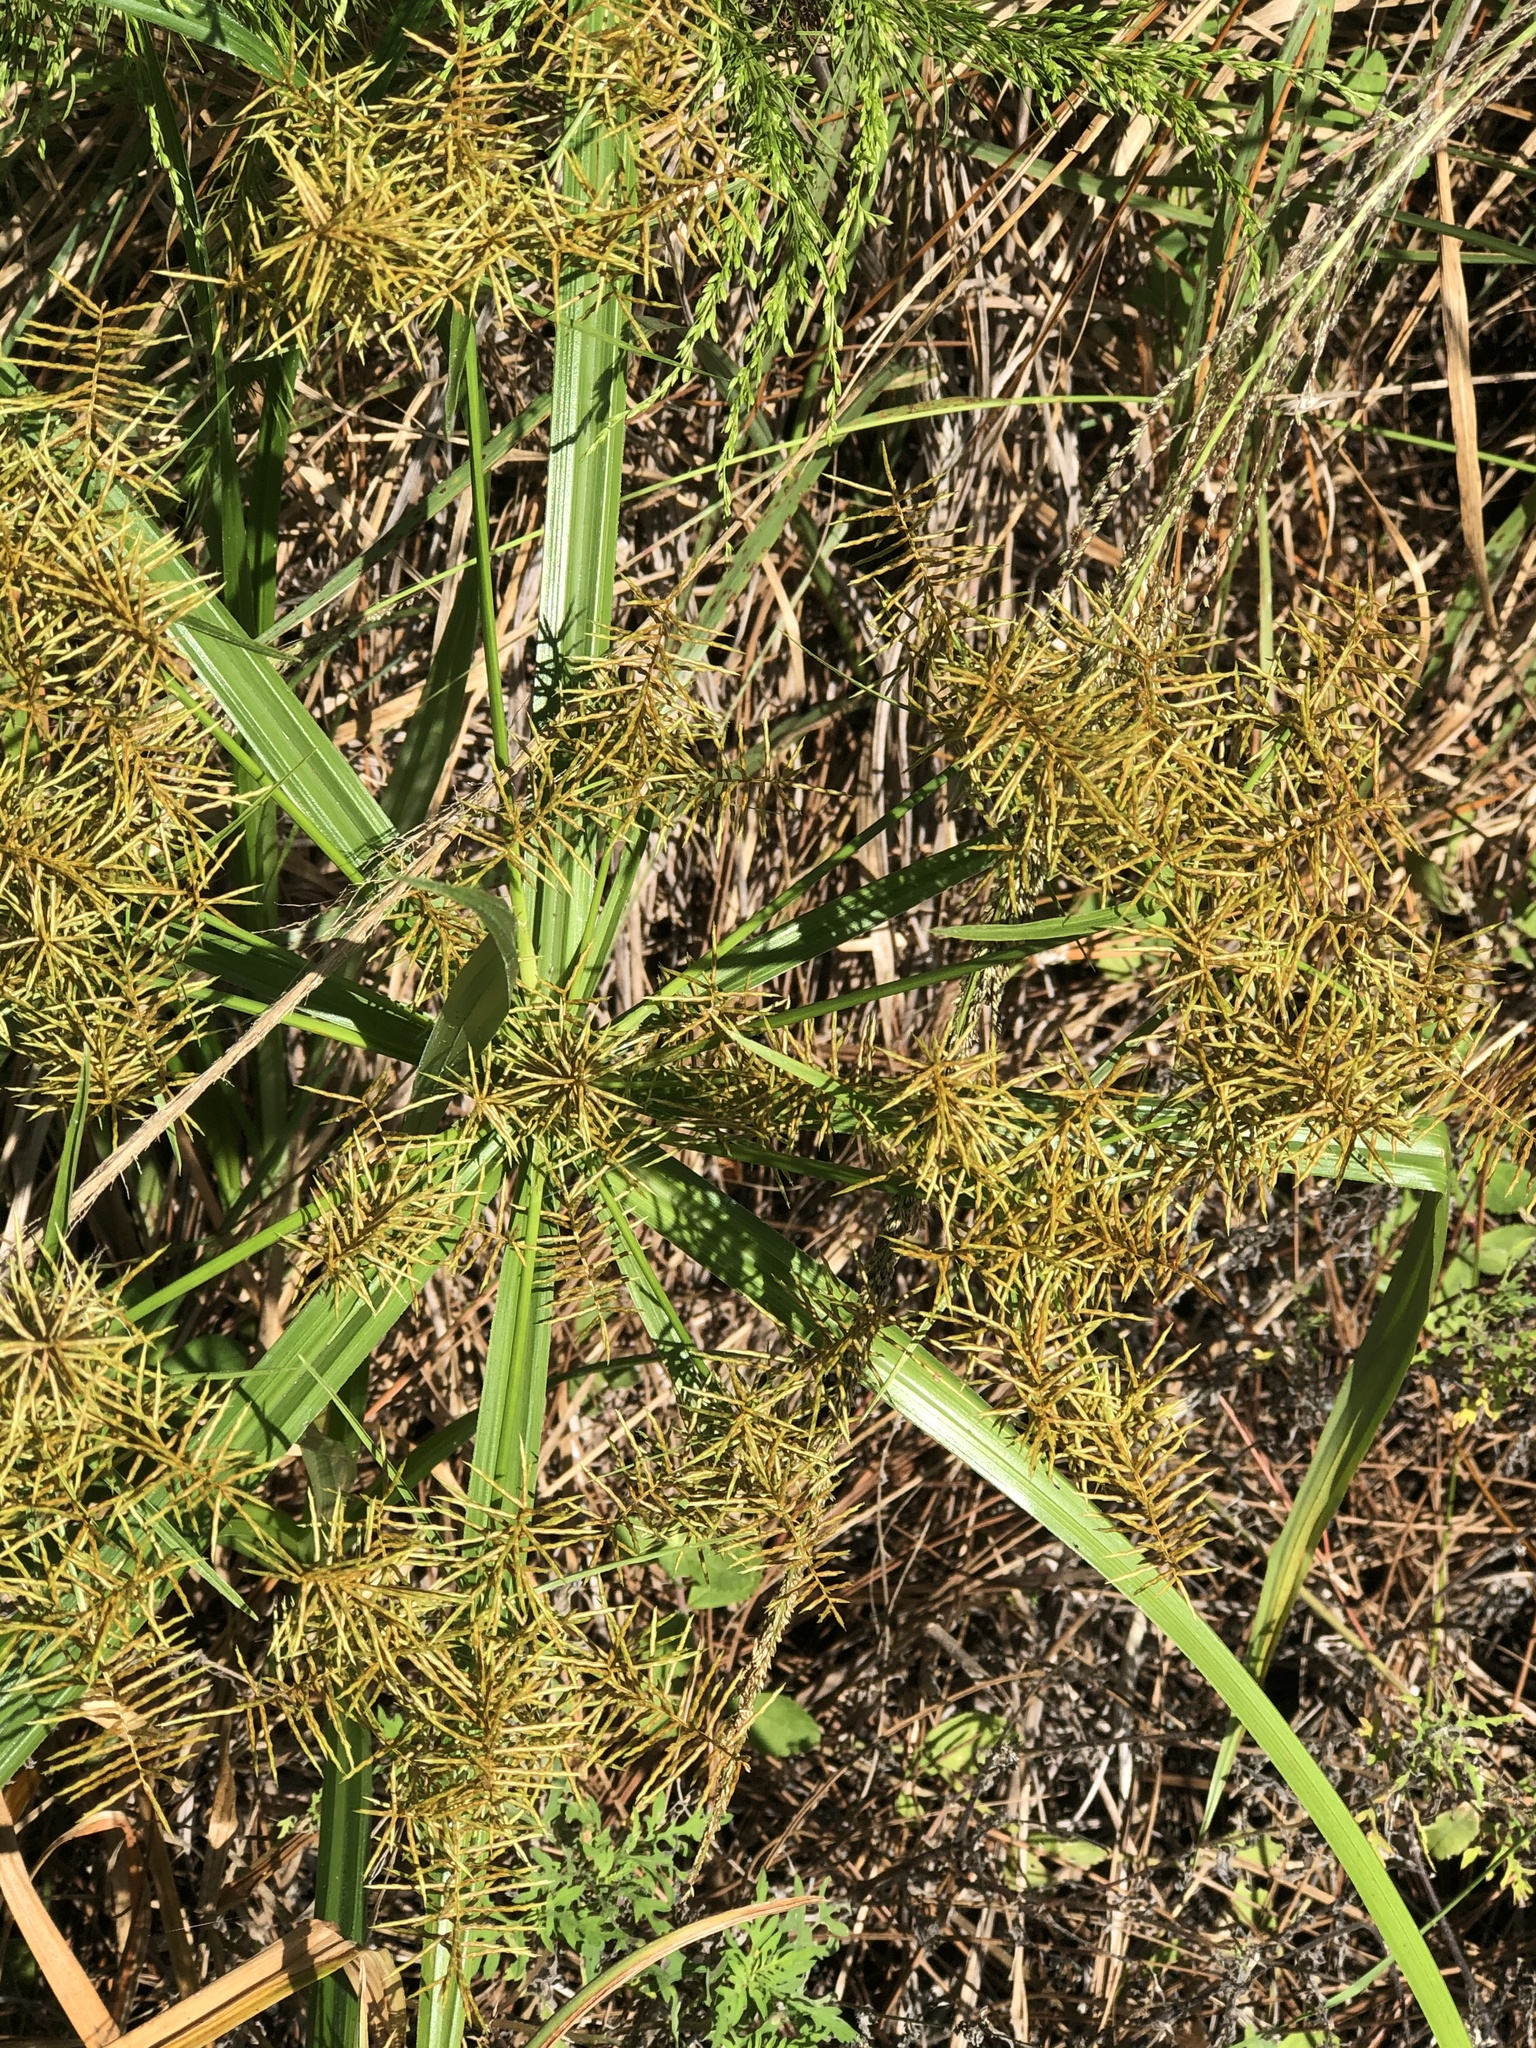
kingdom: Plantae
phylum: Tracheophyta
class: Liliopsida
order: Poales
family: Cyperaceae
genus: Cyperus
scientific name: Cyperus odoratus
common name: Fragrant flatsedge
